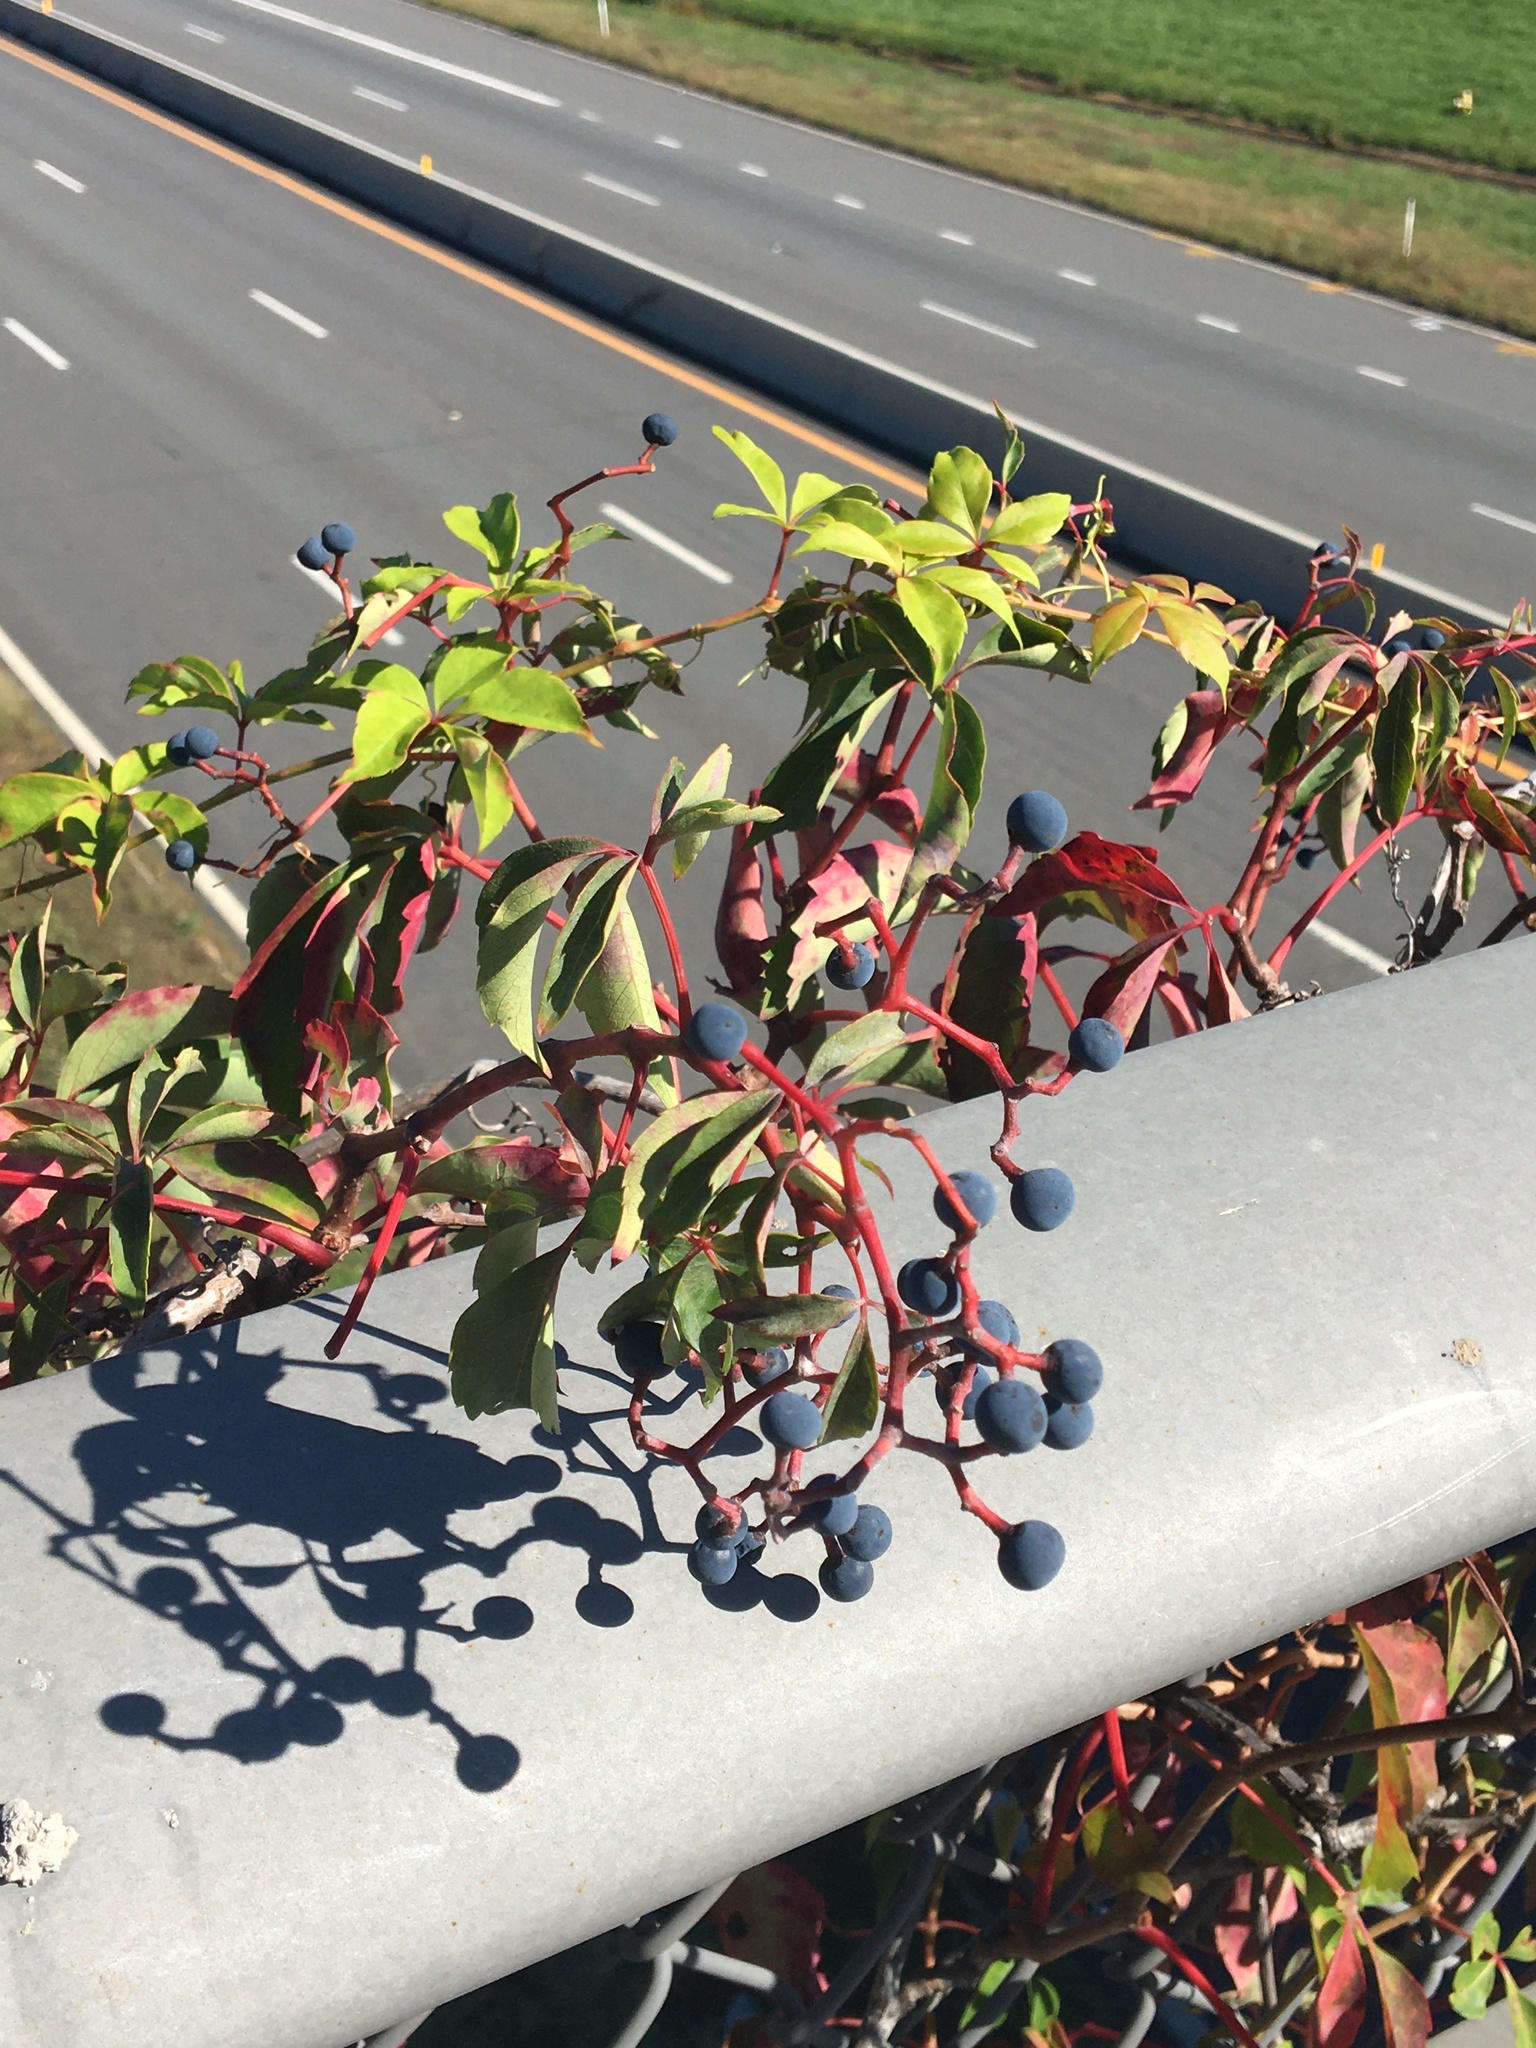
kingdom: Plantae
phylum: Tracheophyta
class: Magnoliopsida
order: Vitales
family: Vitaceae
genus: Parthenocissus
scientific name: Parthenocissus quinquefolia
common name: Virginia-creeper
